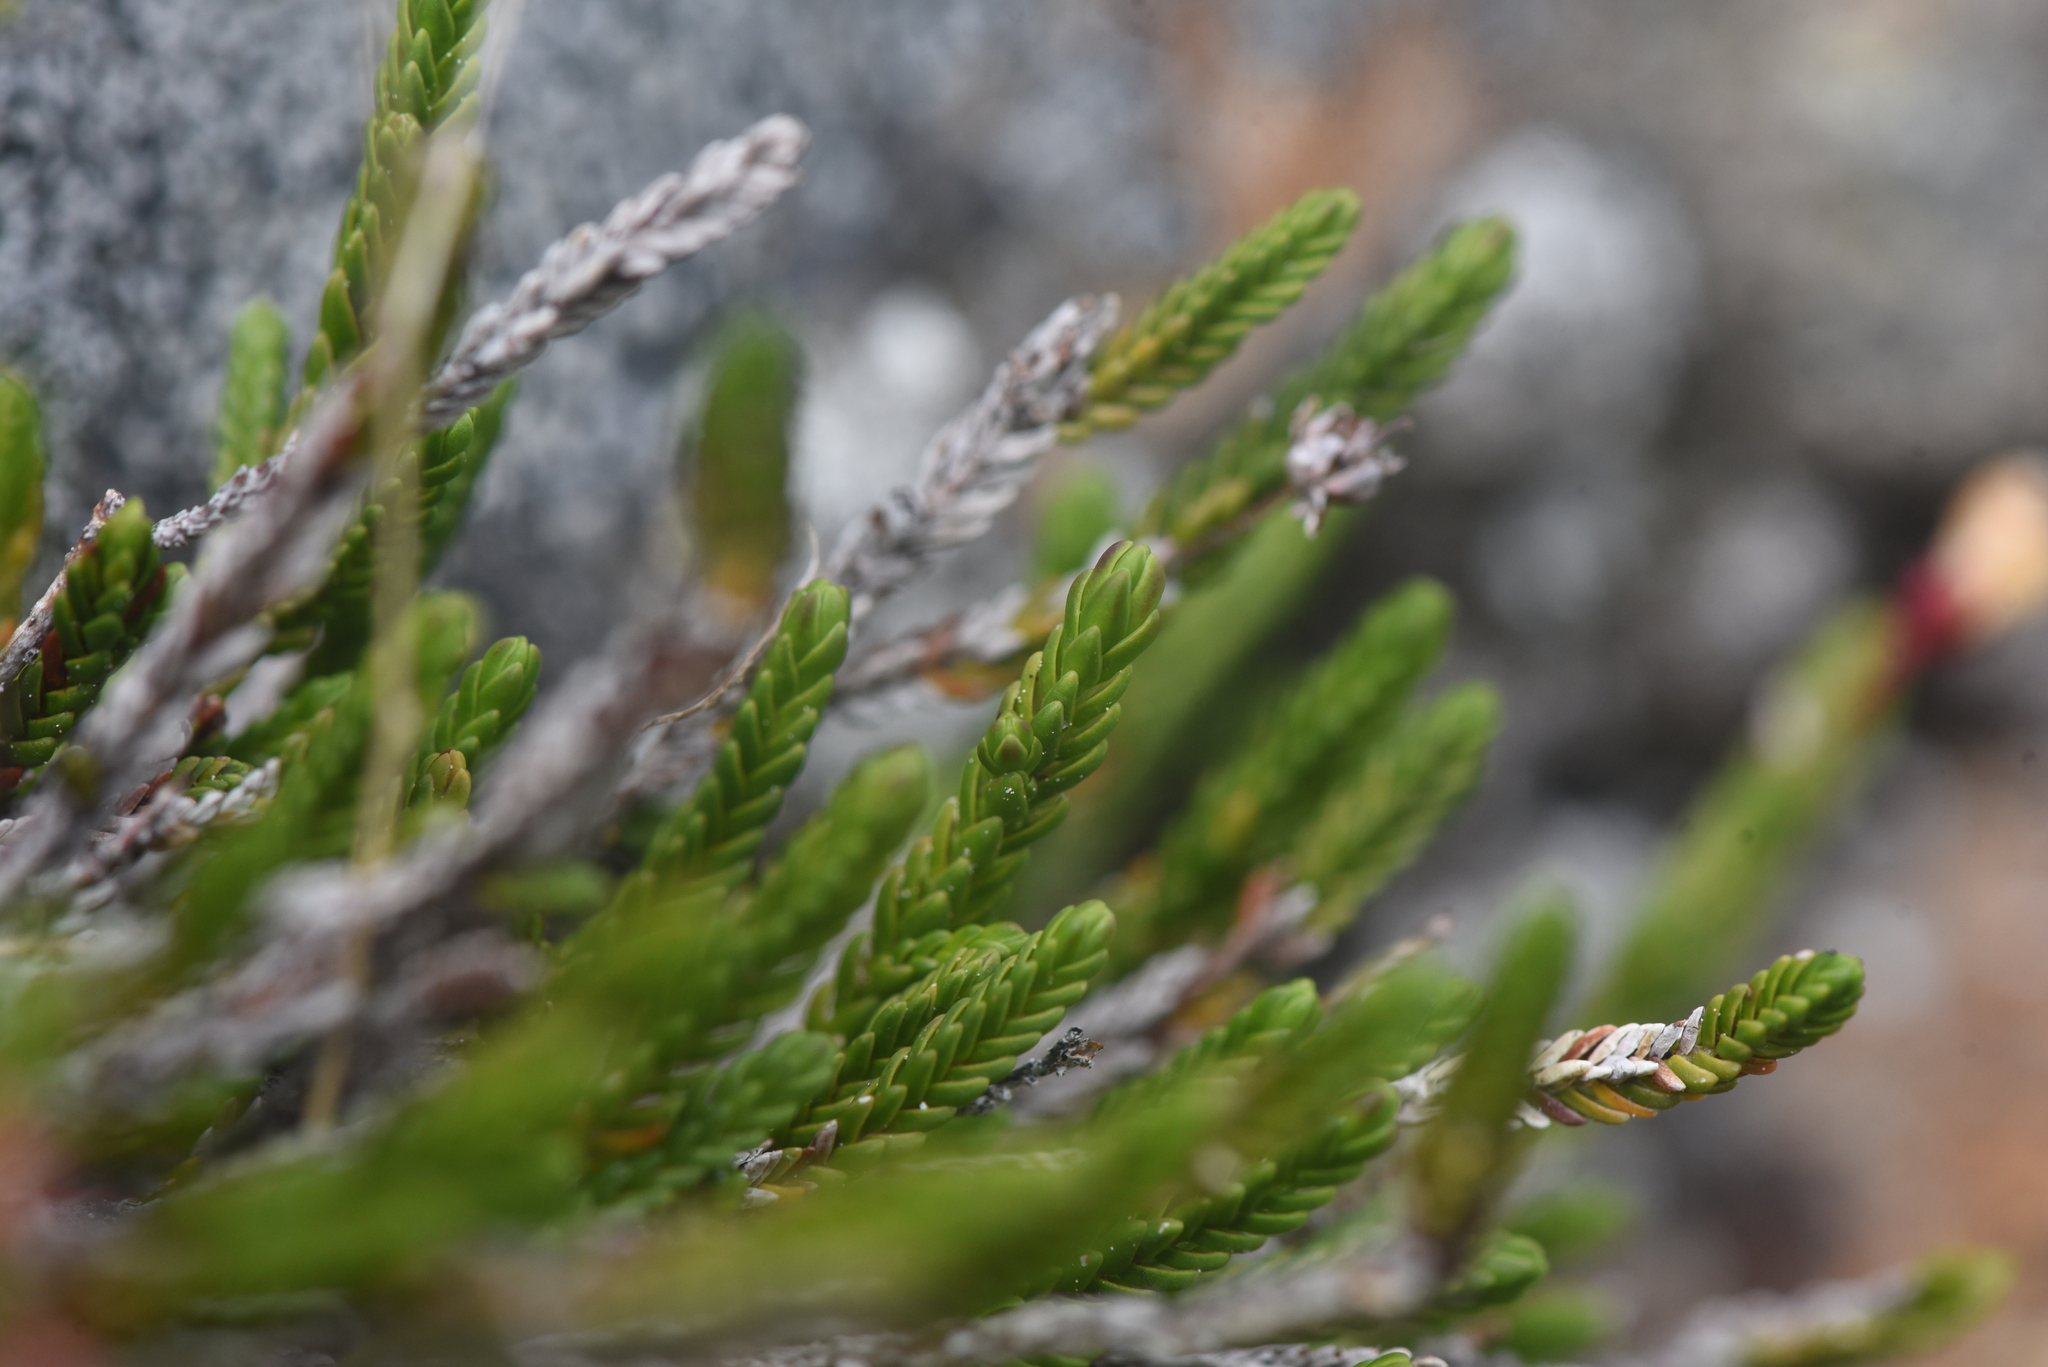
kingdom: Plantae
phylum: Tracheophyta
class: Magnoliopsida
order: Ericales
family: Ericaceae
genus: Cassiope
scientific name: Cassiope mertensiana
